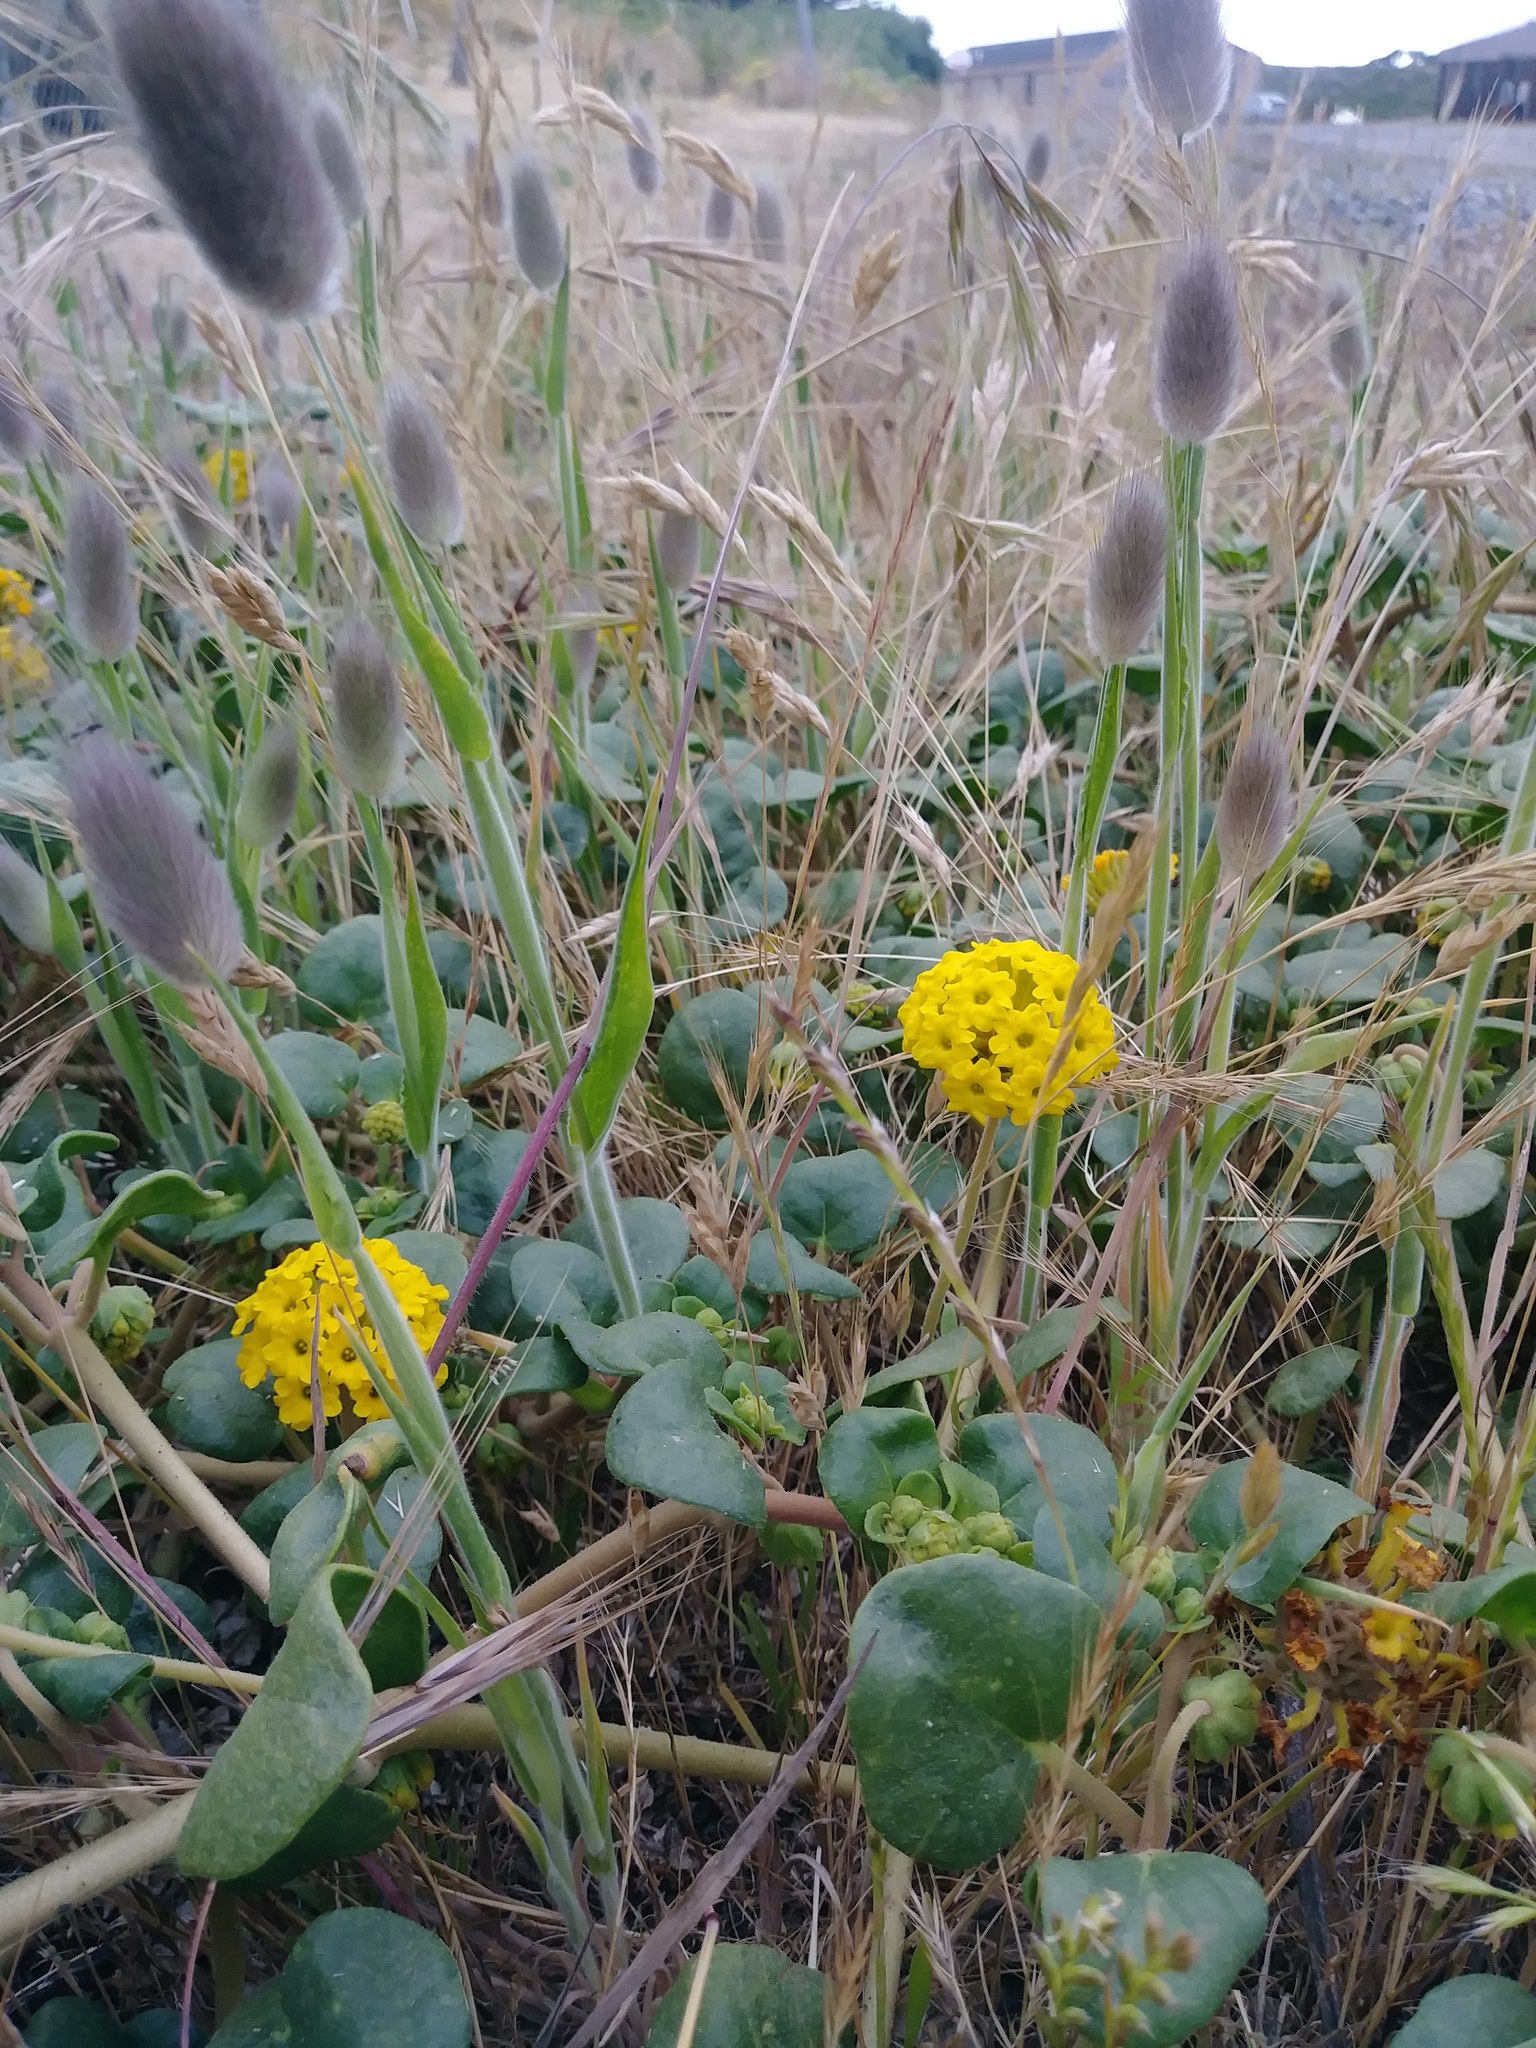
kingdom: Plantae
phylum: Tracheophyta
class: Magnoliopsida
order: Caryophyllales
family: Nyctaginaceae
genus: Abronia
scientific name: Abronia latifolia
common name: Yellow sand-verbena
